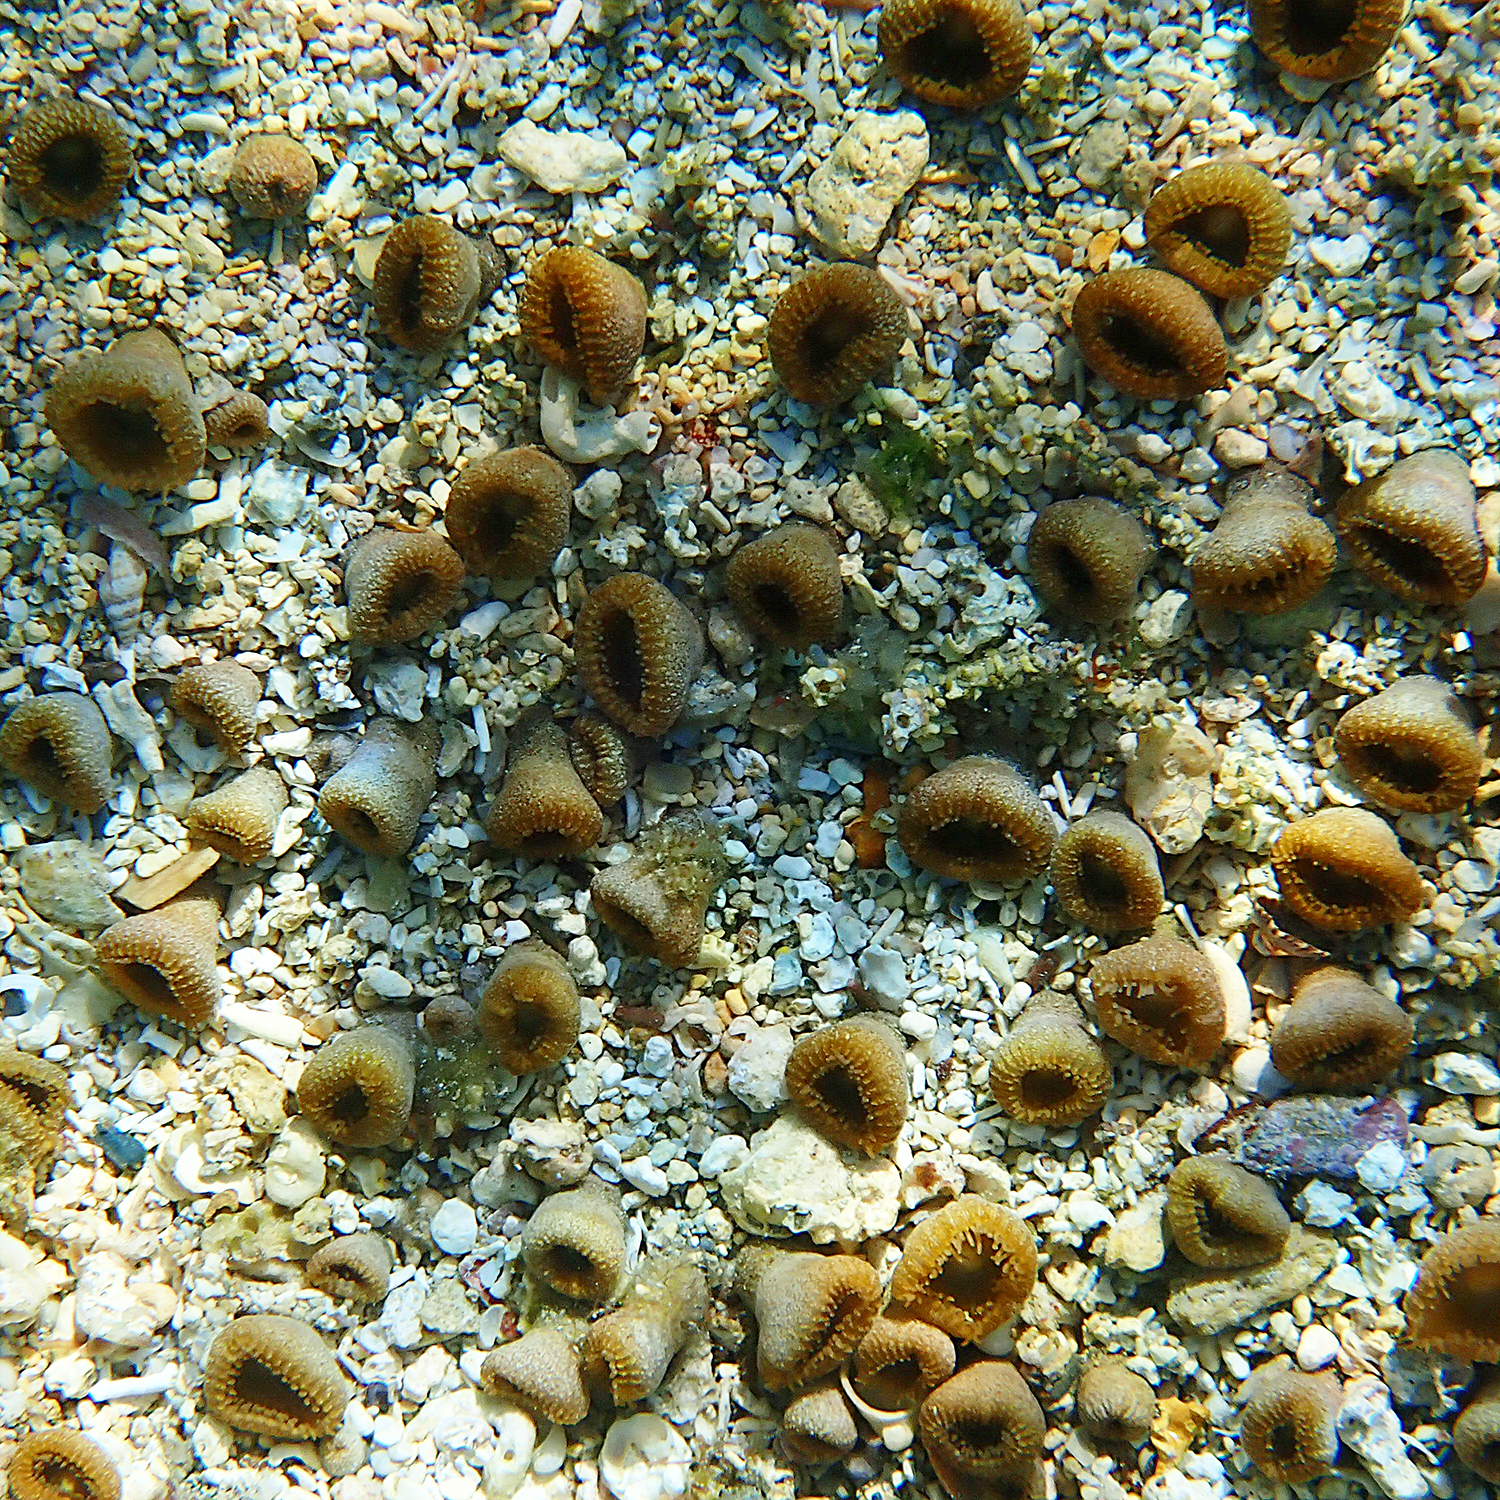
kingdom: Animalia
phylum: Cnidaria
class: Anthozoa
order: Zoantharia
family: Sphenopidae
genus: Palythoa
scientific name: Palythoa mutuki
